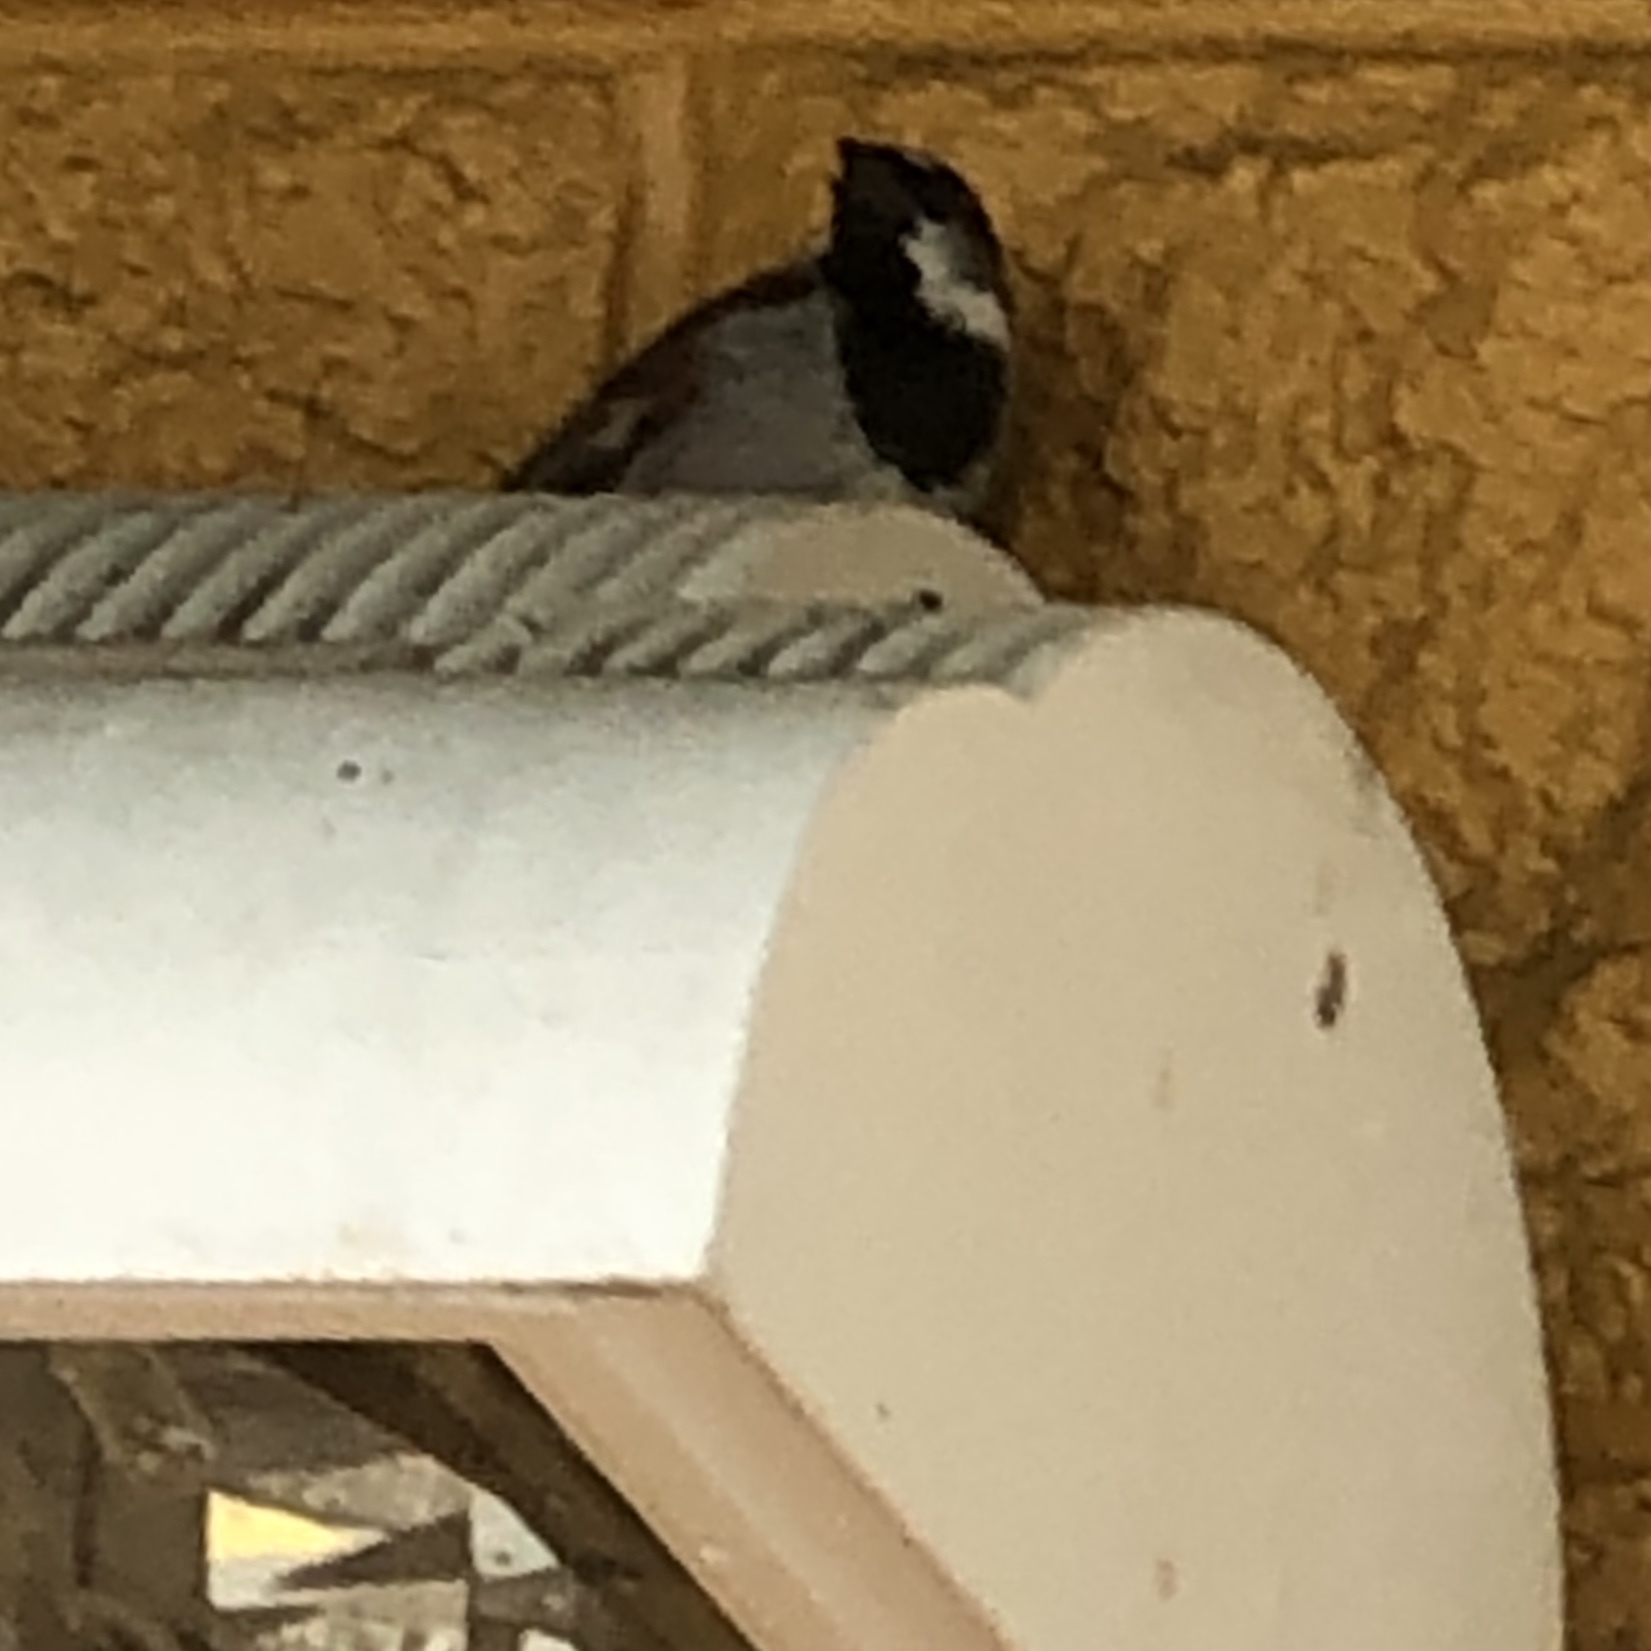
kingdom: Animalia
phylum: Chordata
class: Aves
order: Passeriformes
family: Passeridae
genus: Passer
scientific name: Passer domesticus
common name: House sparrow
